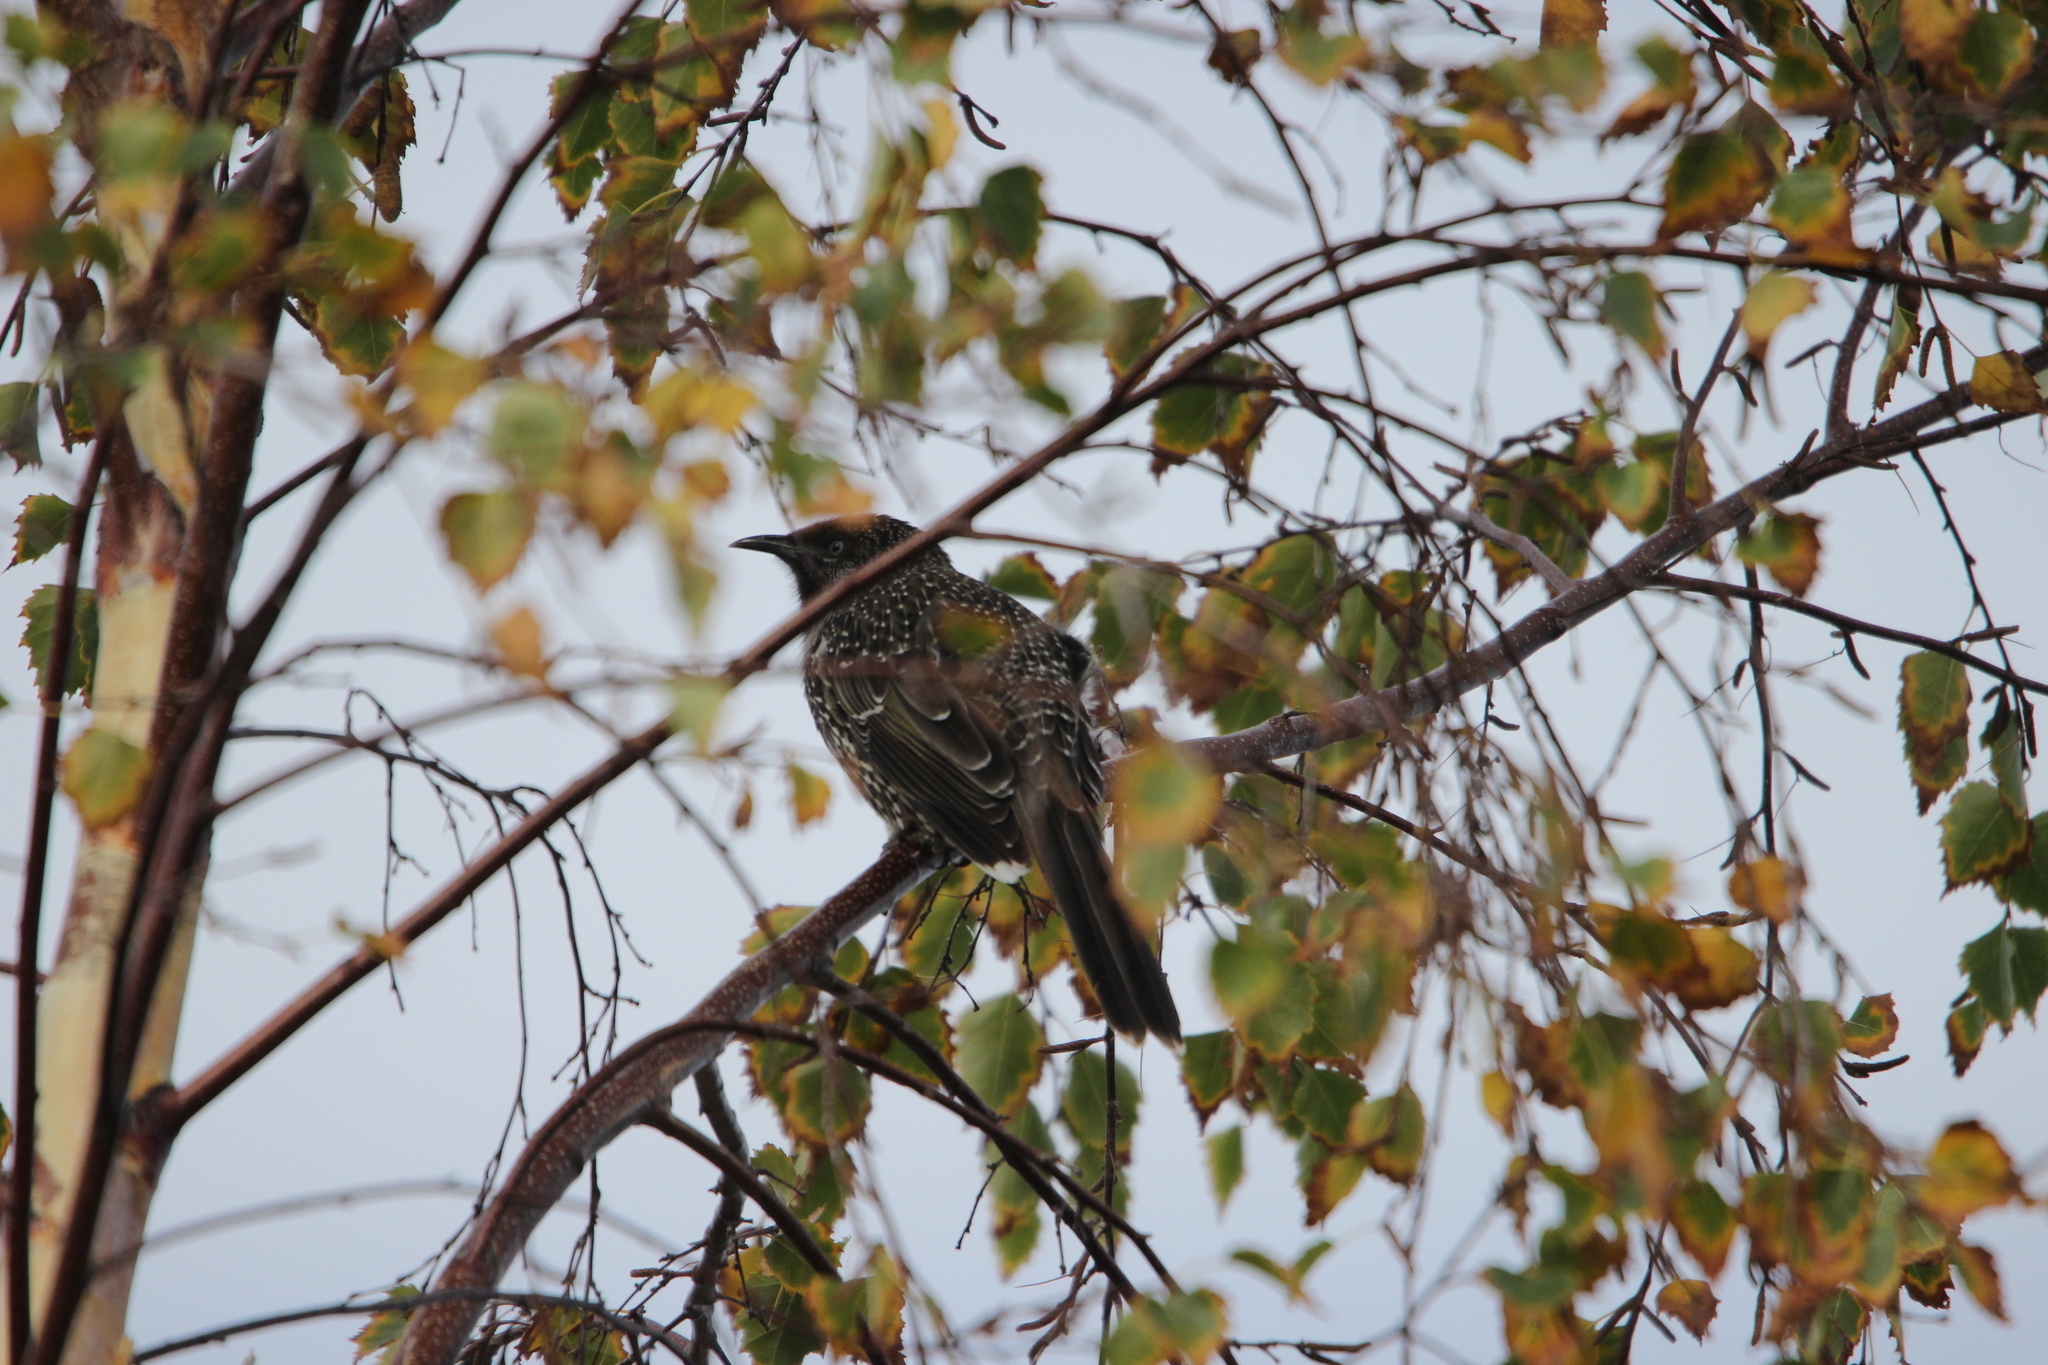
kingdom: Animalia
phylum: Chordata
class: Aves
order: Passeriformes
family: Meliphagidae
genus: Anthochaera
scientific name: Anthochaera chrysoptera
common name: Little wattlebird
